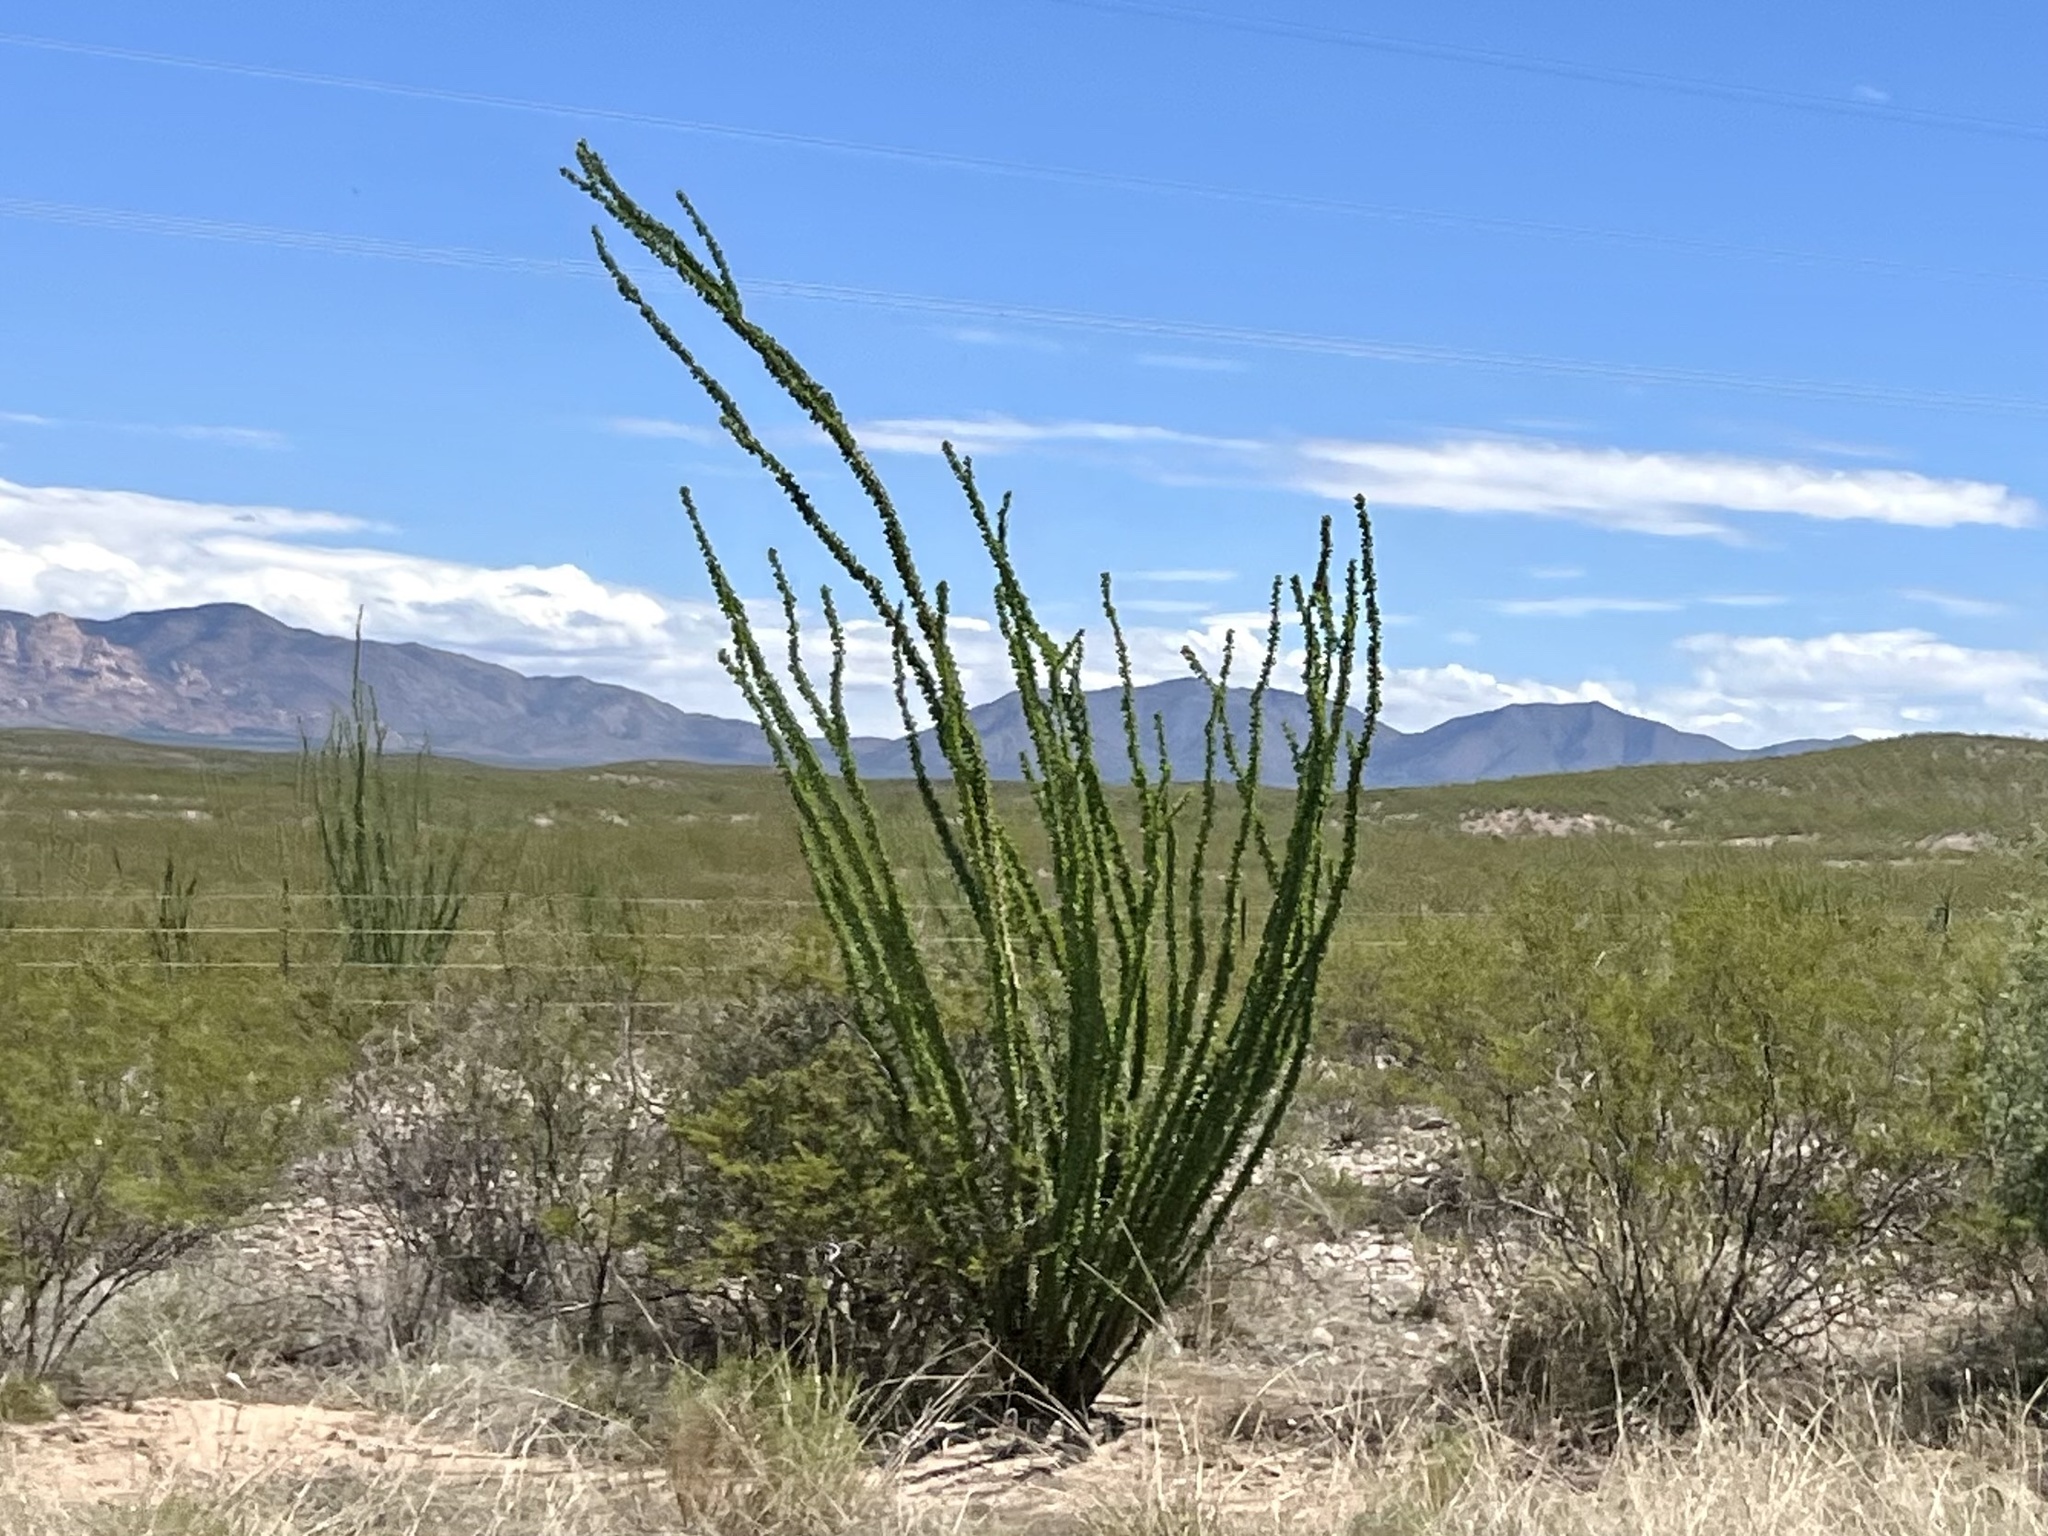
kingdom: Plantae
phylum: Tracheophyta
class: Magnoliopsida
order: Ericales
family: Fouquieriaceae
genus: Fouquieria
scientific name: Fouquieria splendens
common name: Vine-cactus
